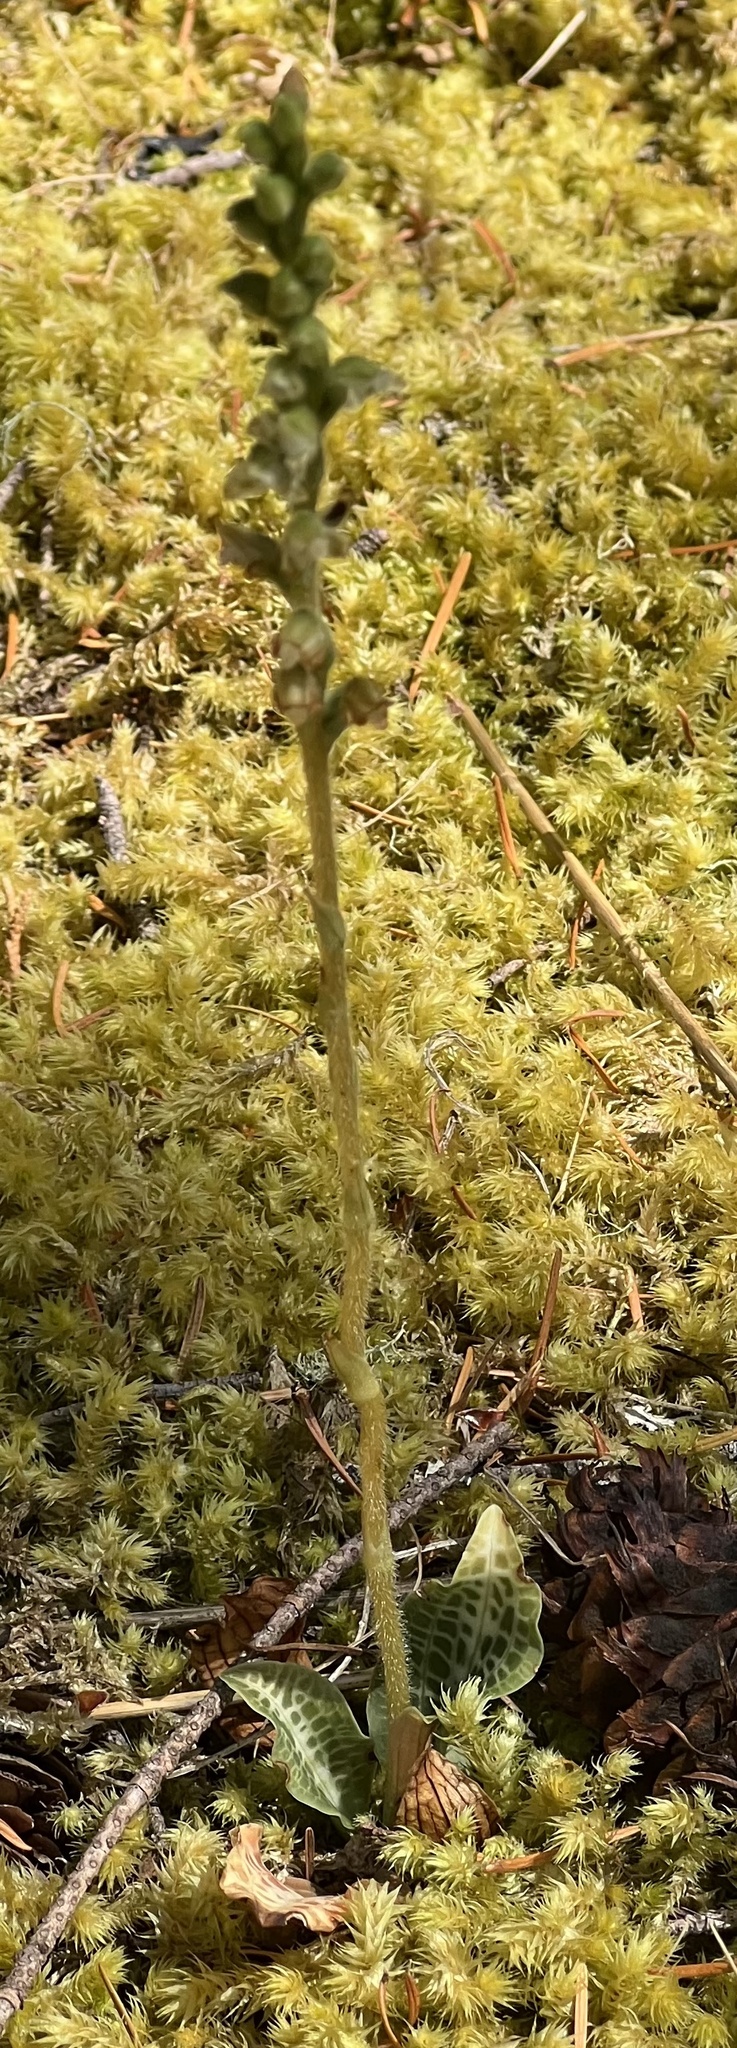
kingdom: Plantae
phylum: Tracheophyta
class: Liliopsida
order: Asparagales
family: Orchidaceae
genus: Goodyera
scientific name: Goodyera oblongifolia
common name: Giant rattlesnake-plantain
